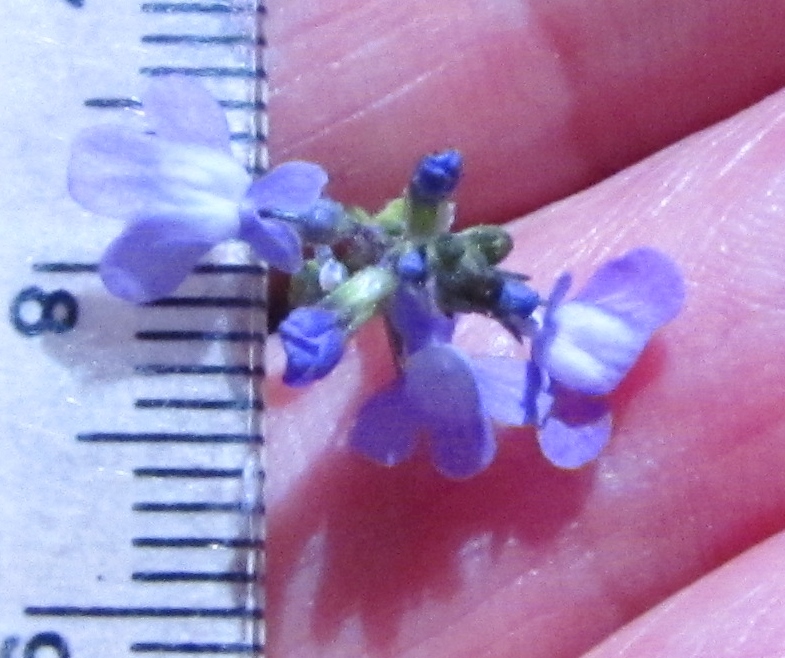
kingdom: Plantae
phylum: Tracheophyta
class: Magnoliopsida
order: Lamiales
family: Plantaginaceae
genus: Nuttallanthus
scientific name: Nuttallanthus canadensis
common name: Blue toadflax
